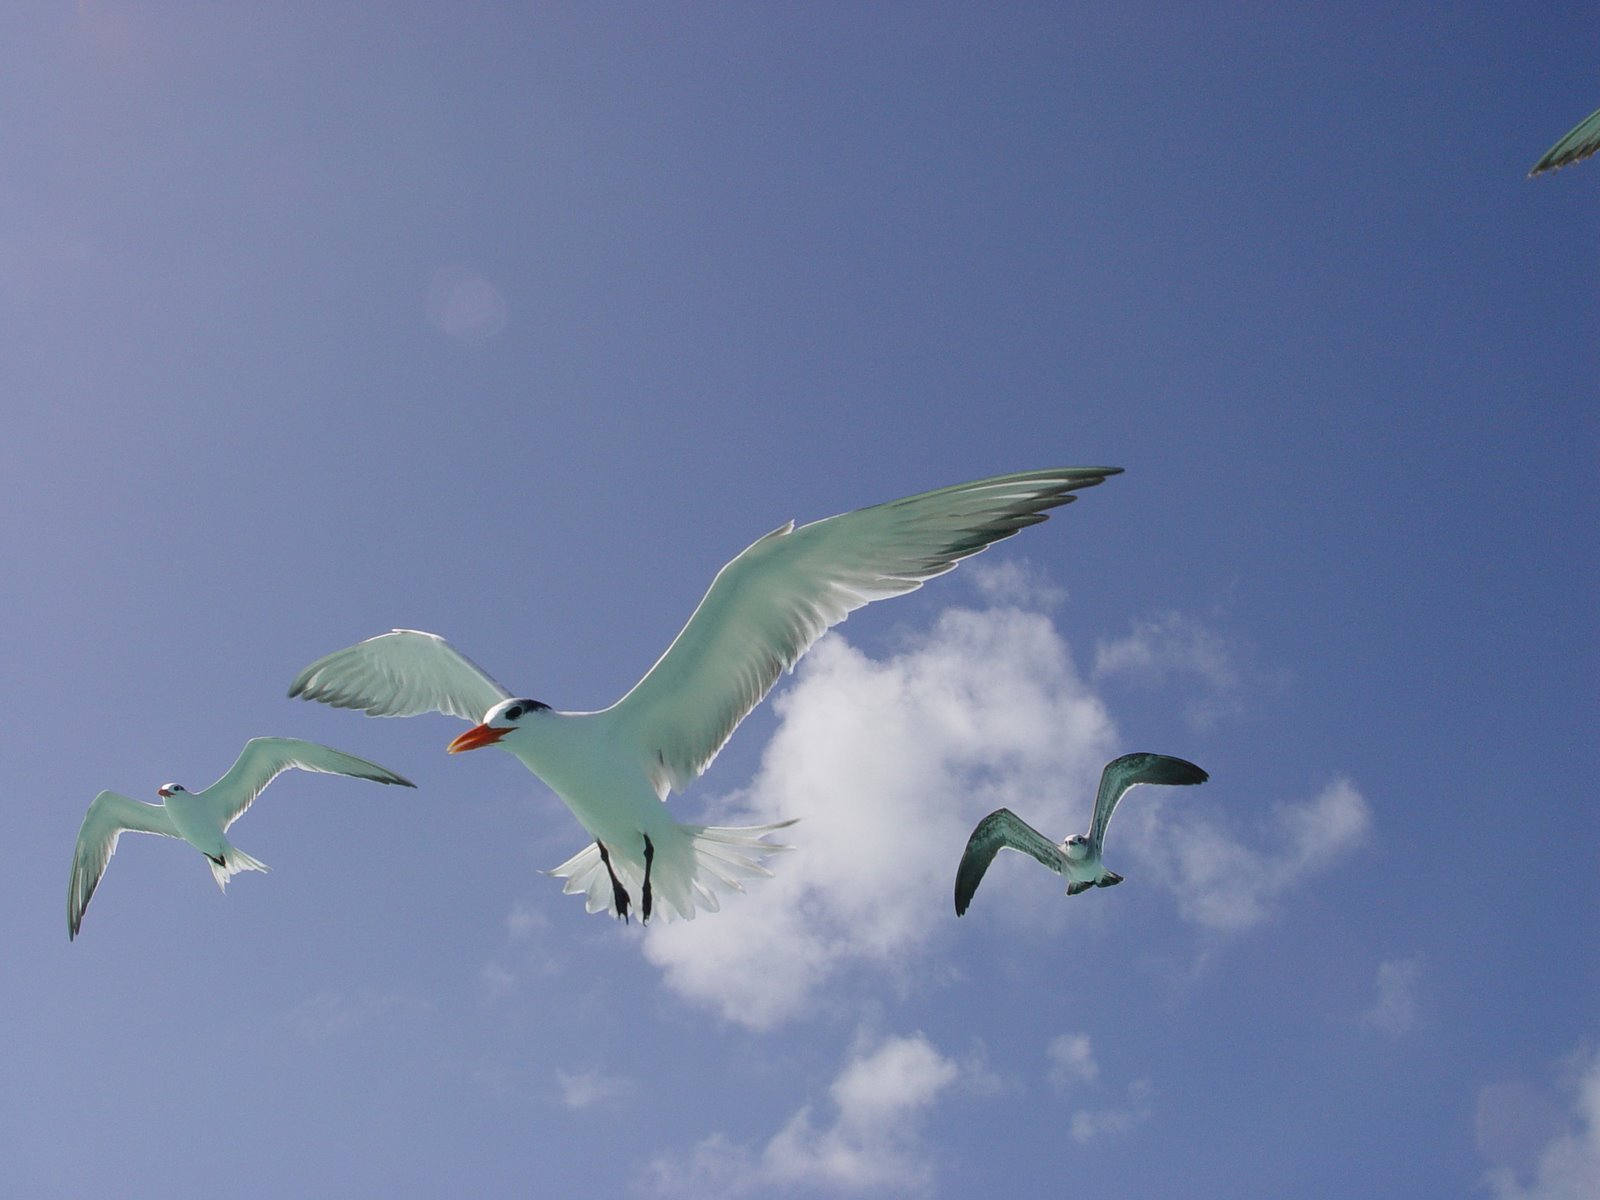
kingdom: Animalia
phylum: Chordata
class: Aves
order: Charadriiformes
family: Laridae
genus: Thalasseus
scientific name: Thalasseus maximus
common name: Royal tern
